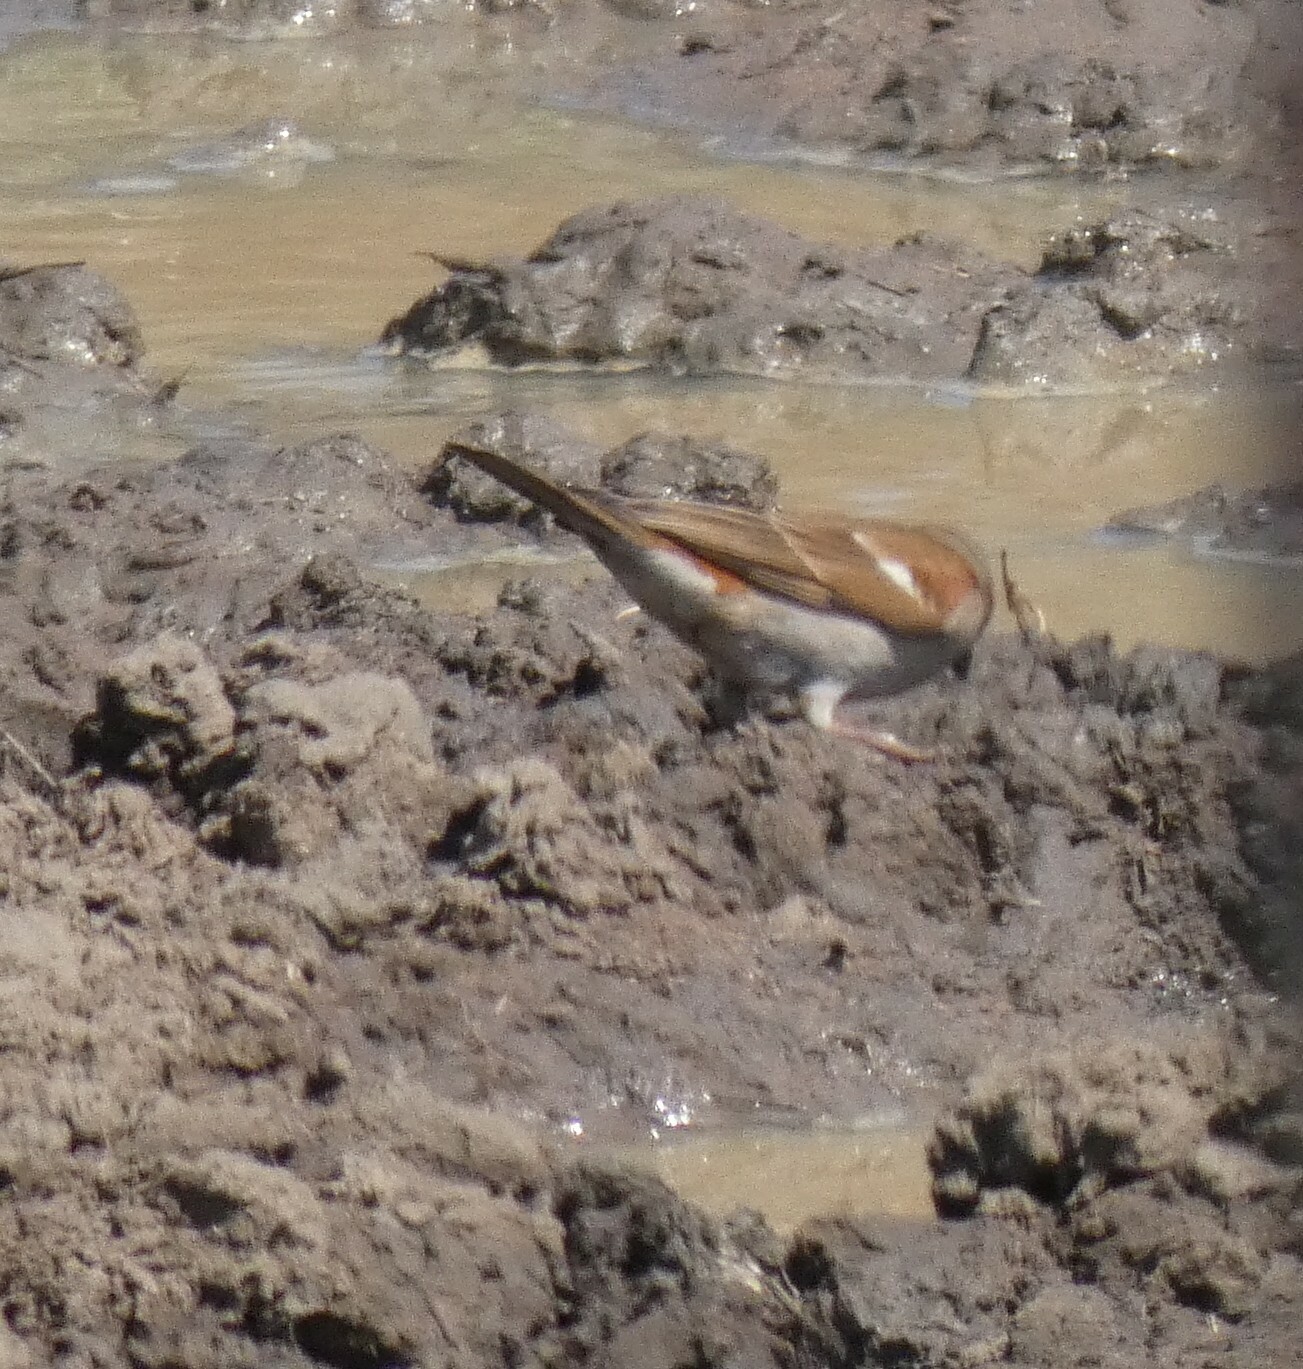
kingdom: Animalia
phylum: Chordata
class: Aves
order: Passeriformes
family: Passeridae
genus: Passer
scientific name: Passer diffusus
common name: Southern grey-headed sparrow
